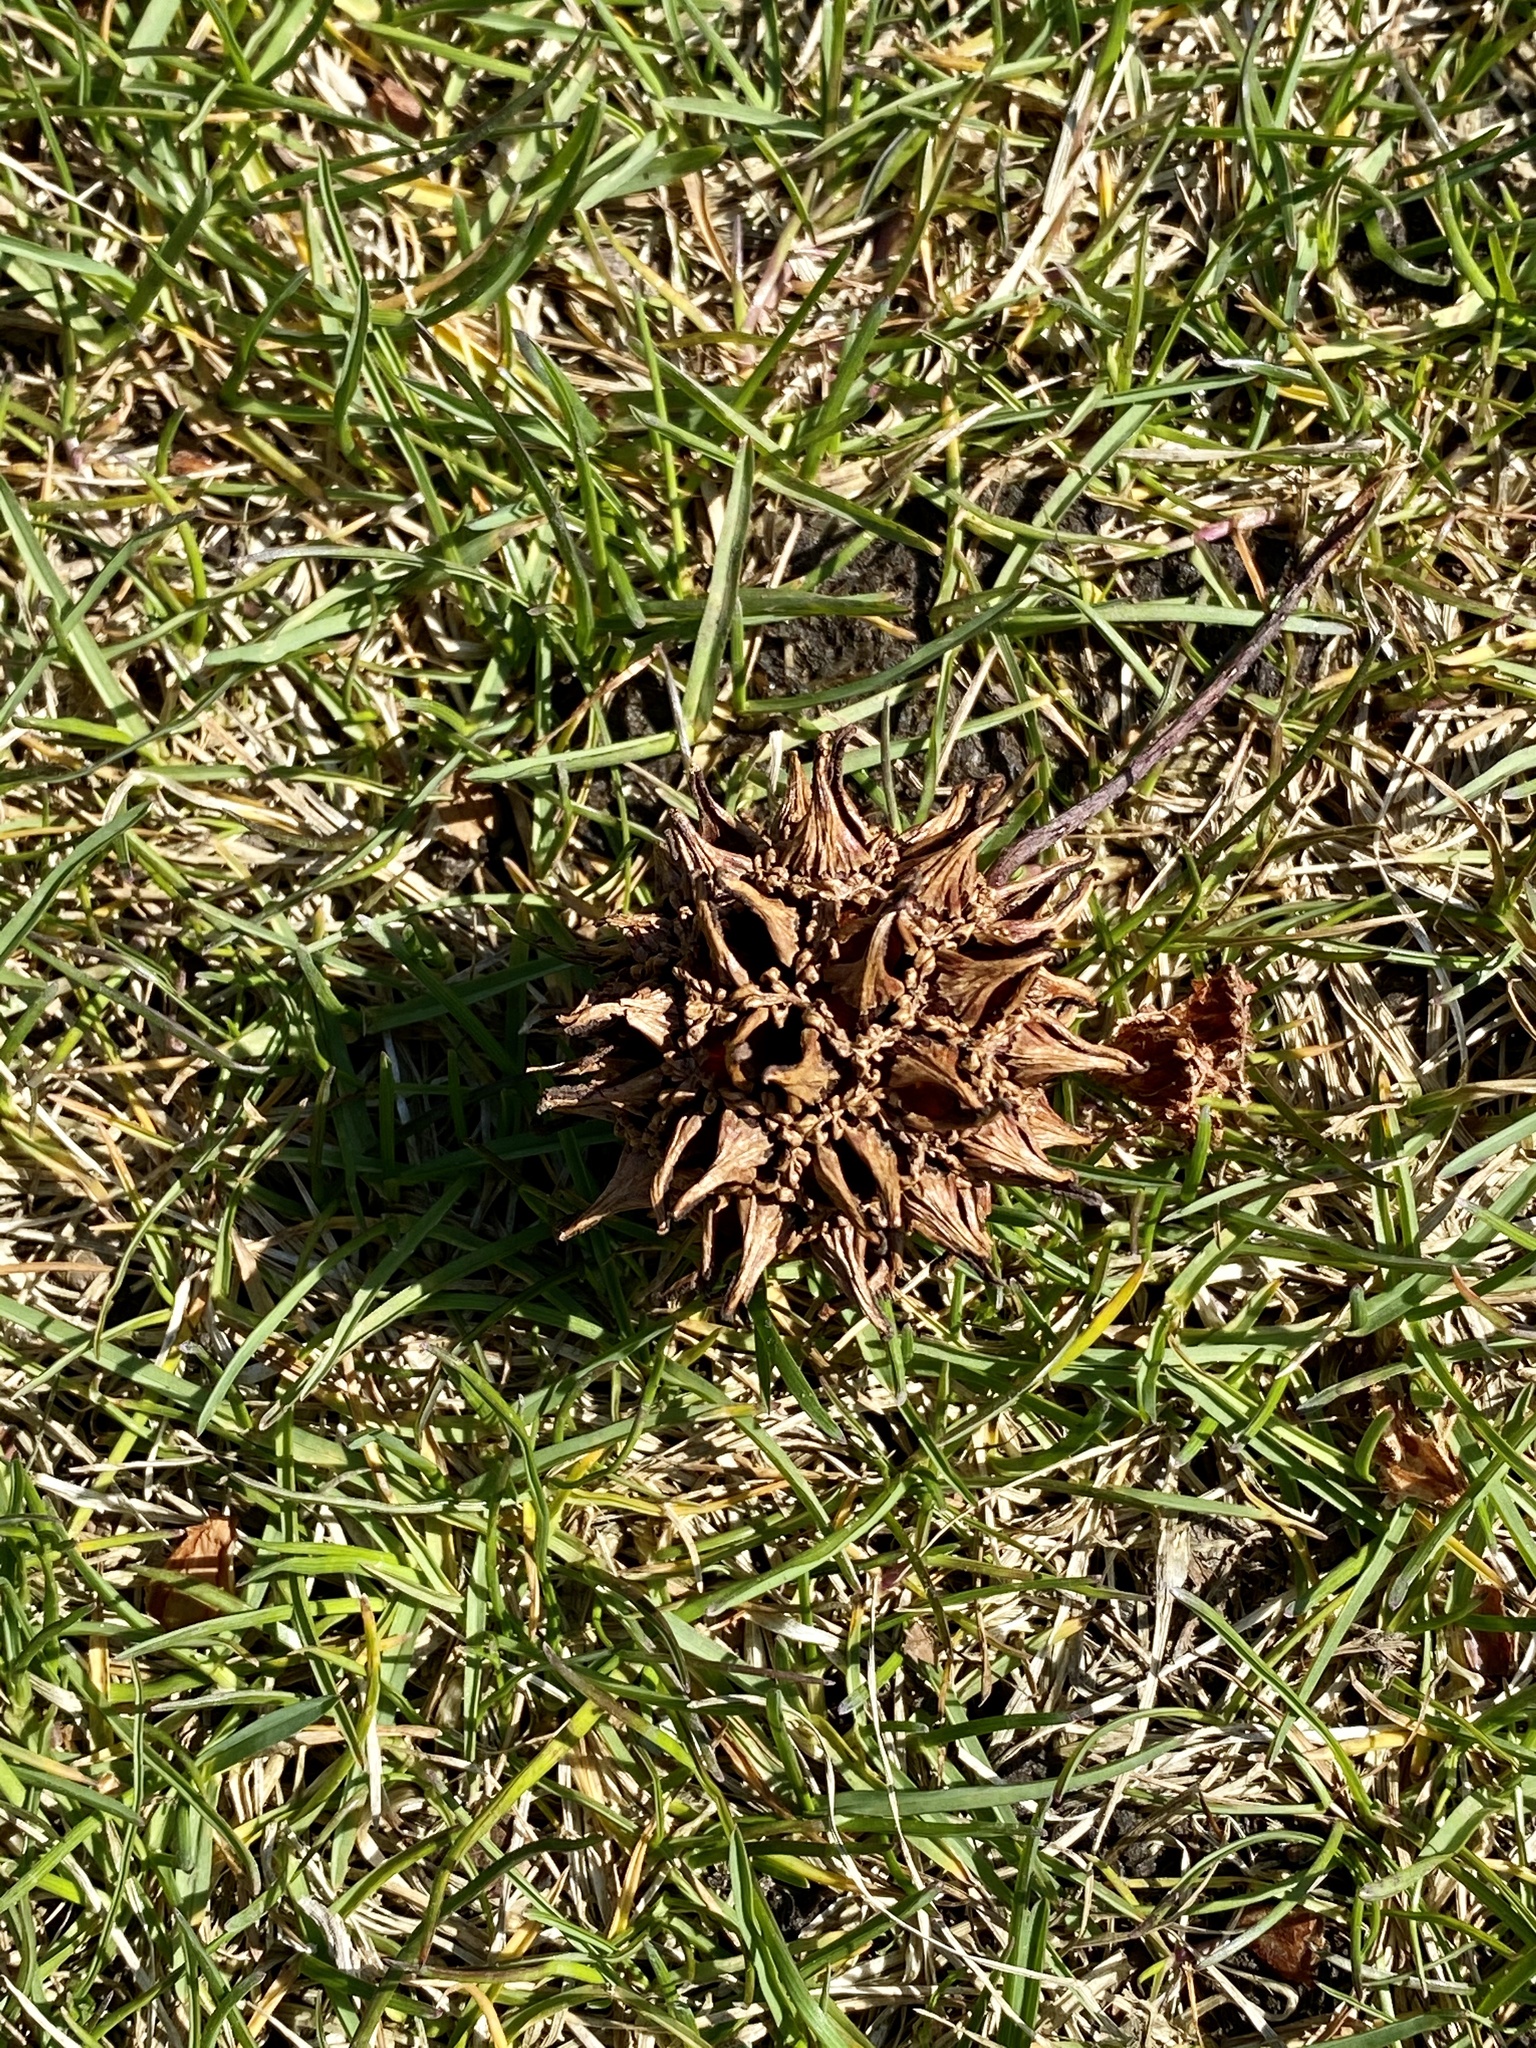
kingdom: Plantae
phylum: Tracheophyta
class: Magnoliopsida
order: Saxifragales
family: Altingiaceae
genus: Liquidambar
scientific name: Liquidambar styraciflua
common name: Sweet gum
